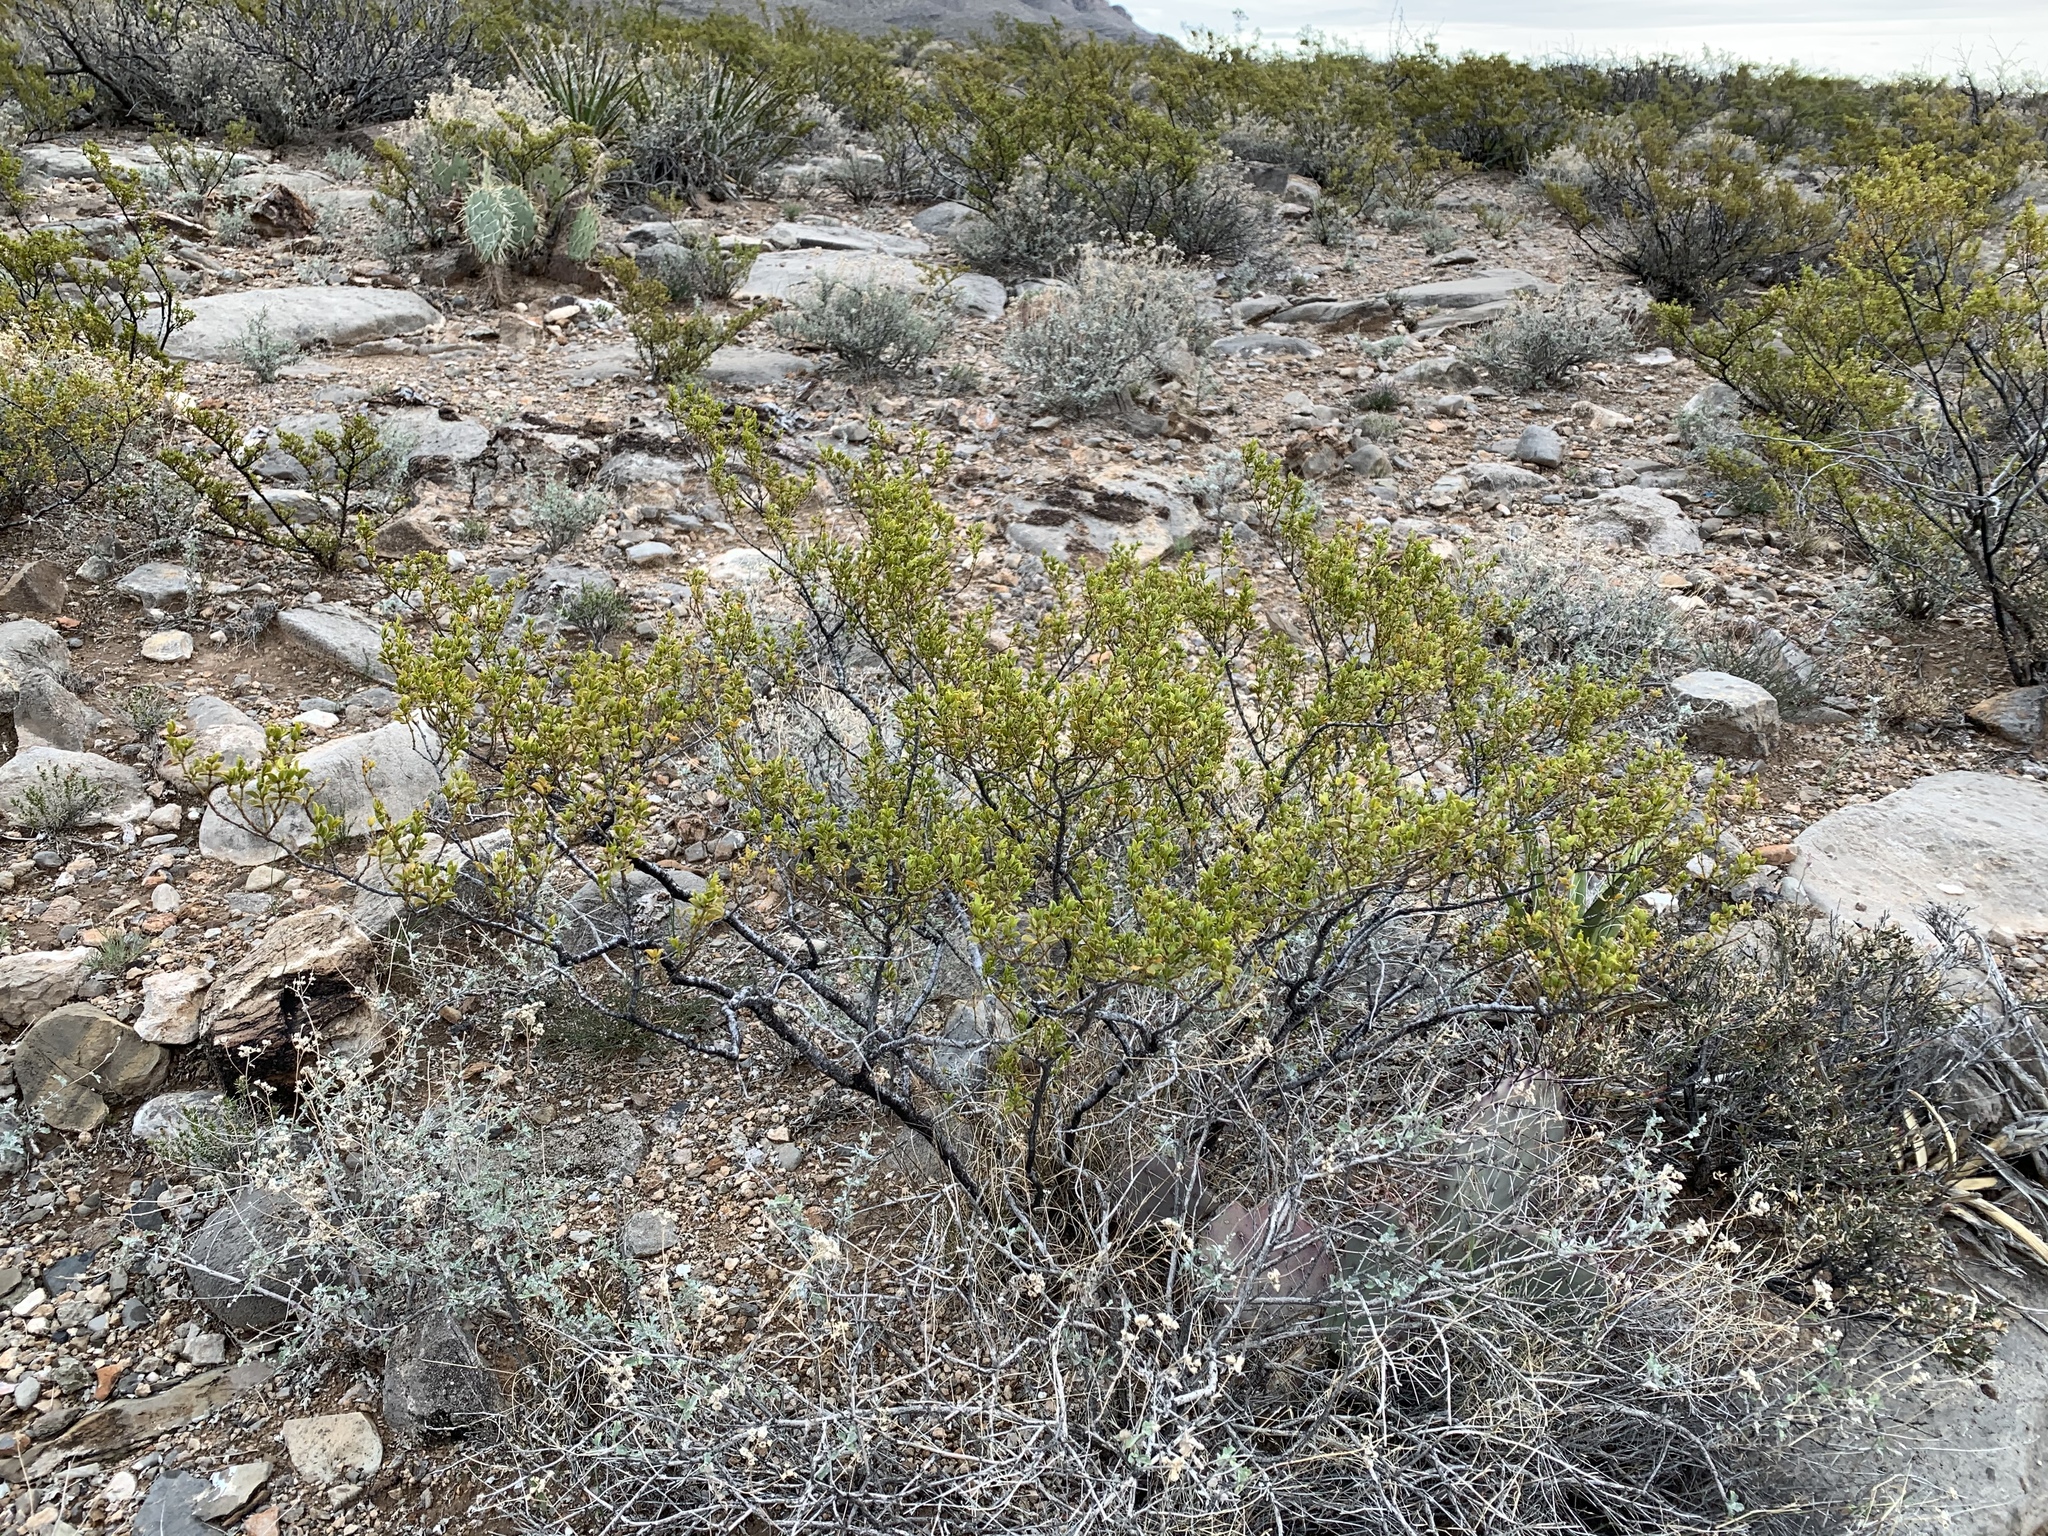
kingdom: Plantae
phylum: Tracheophyta
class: Magnoliopsida
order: Zygophyllales
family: Zygophyllaceae
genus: Larrea
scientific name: Larrea tridentata
